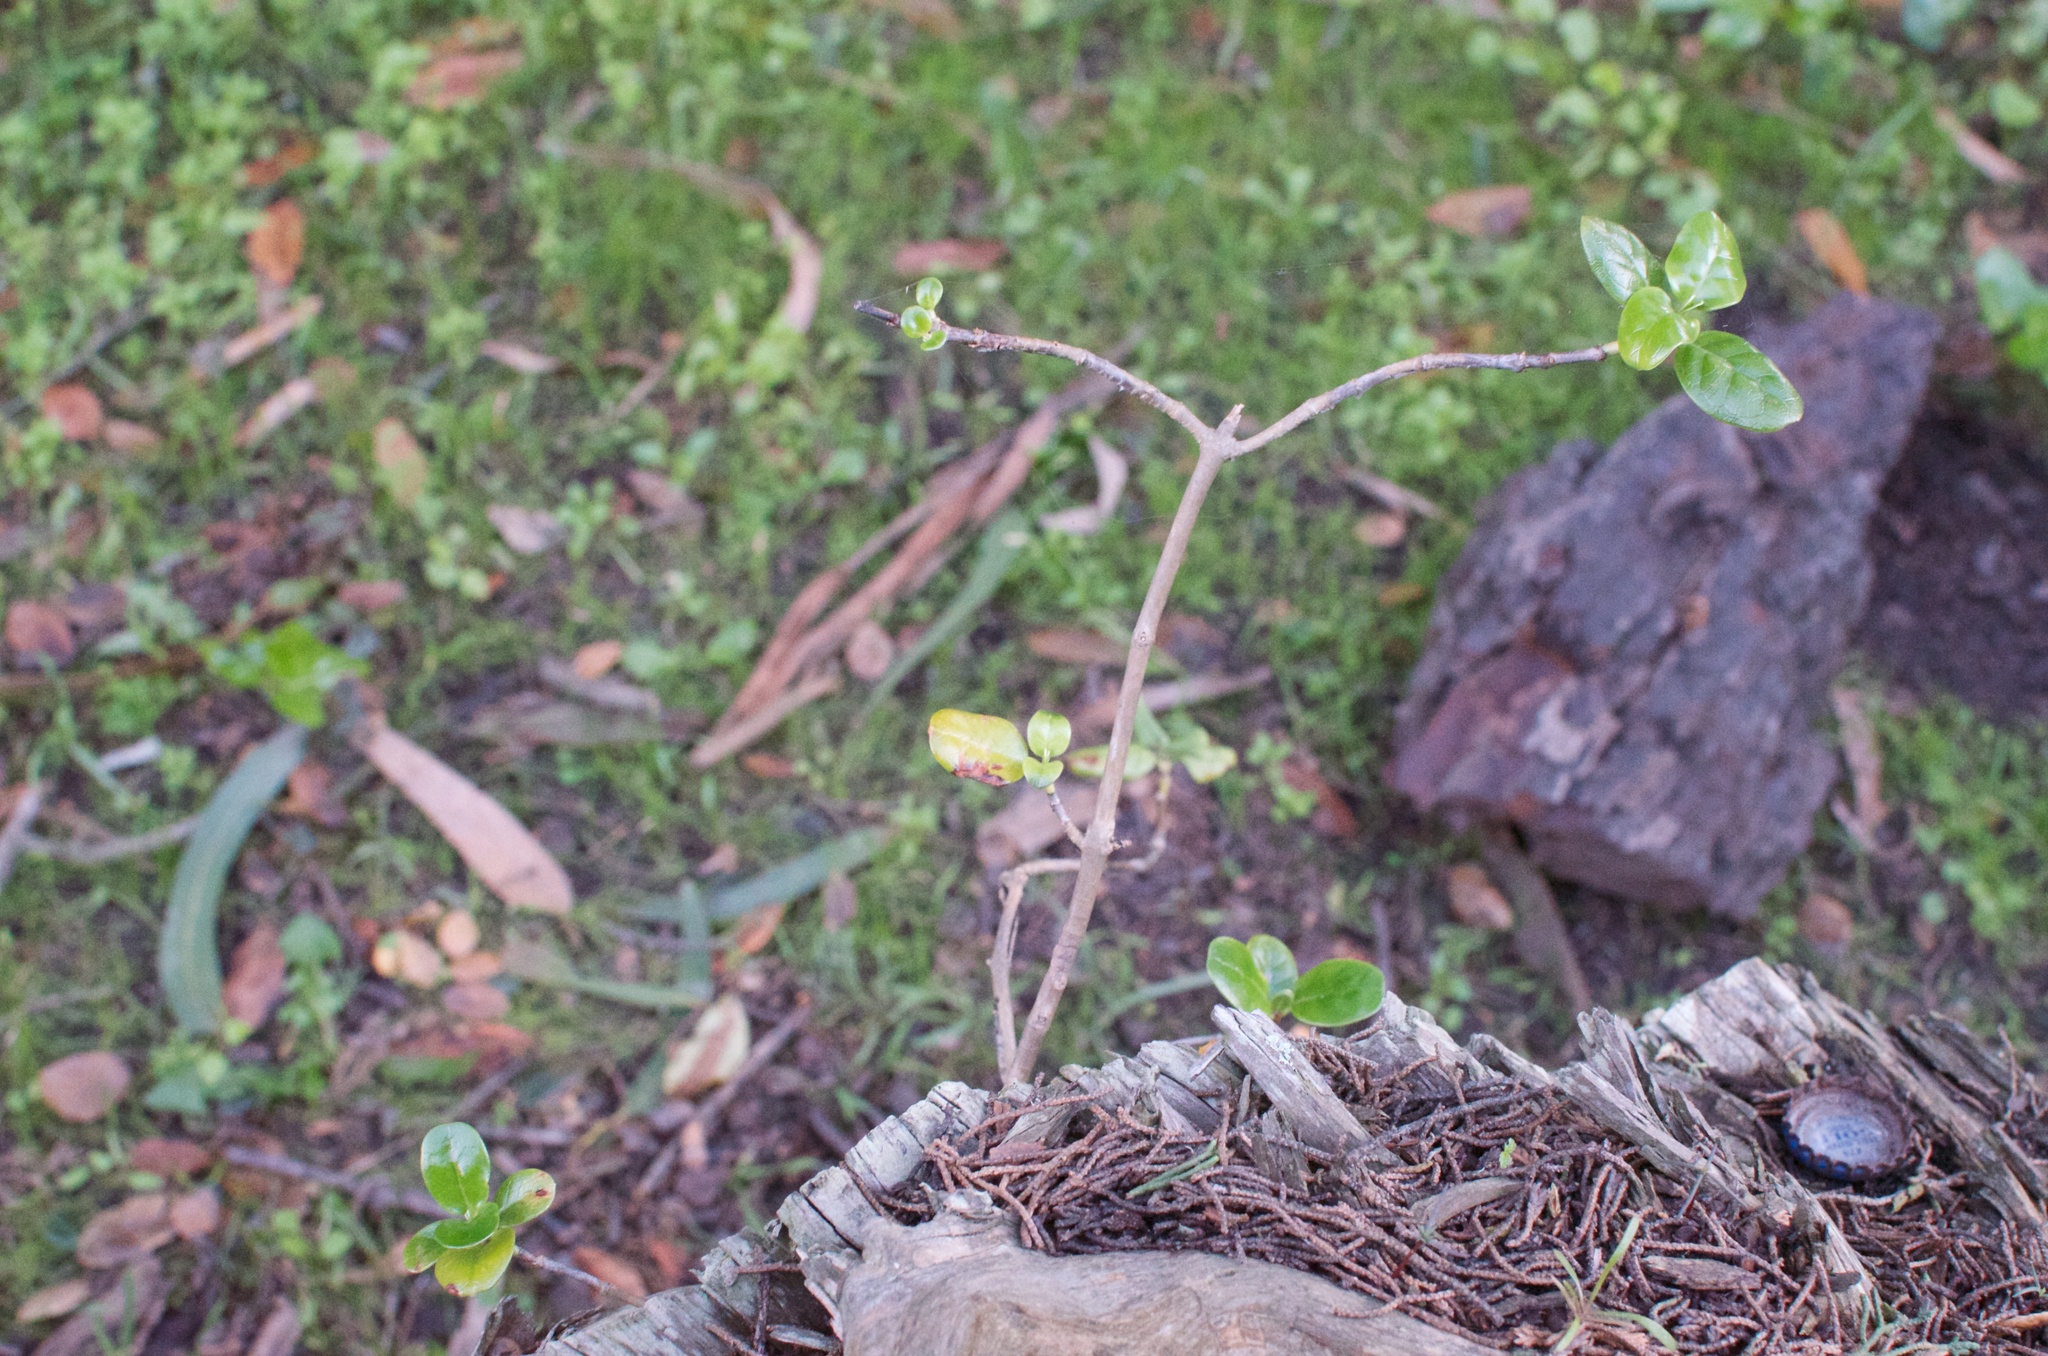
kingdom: Plantae
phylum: Tracheophyta
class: Magnoliopsida
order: Gentianales
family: Rubiaceae
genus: Coprosma
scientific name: Coprosma repens
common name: Tree bedstraw
